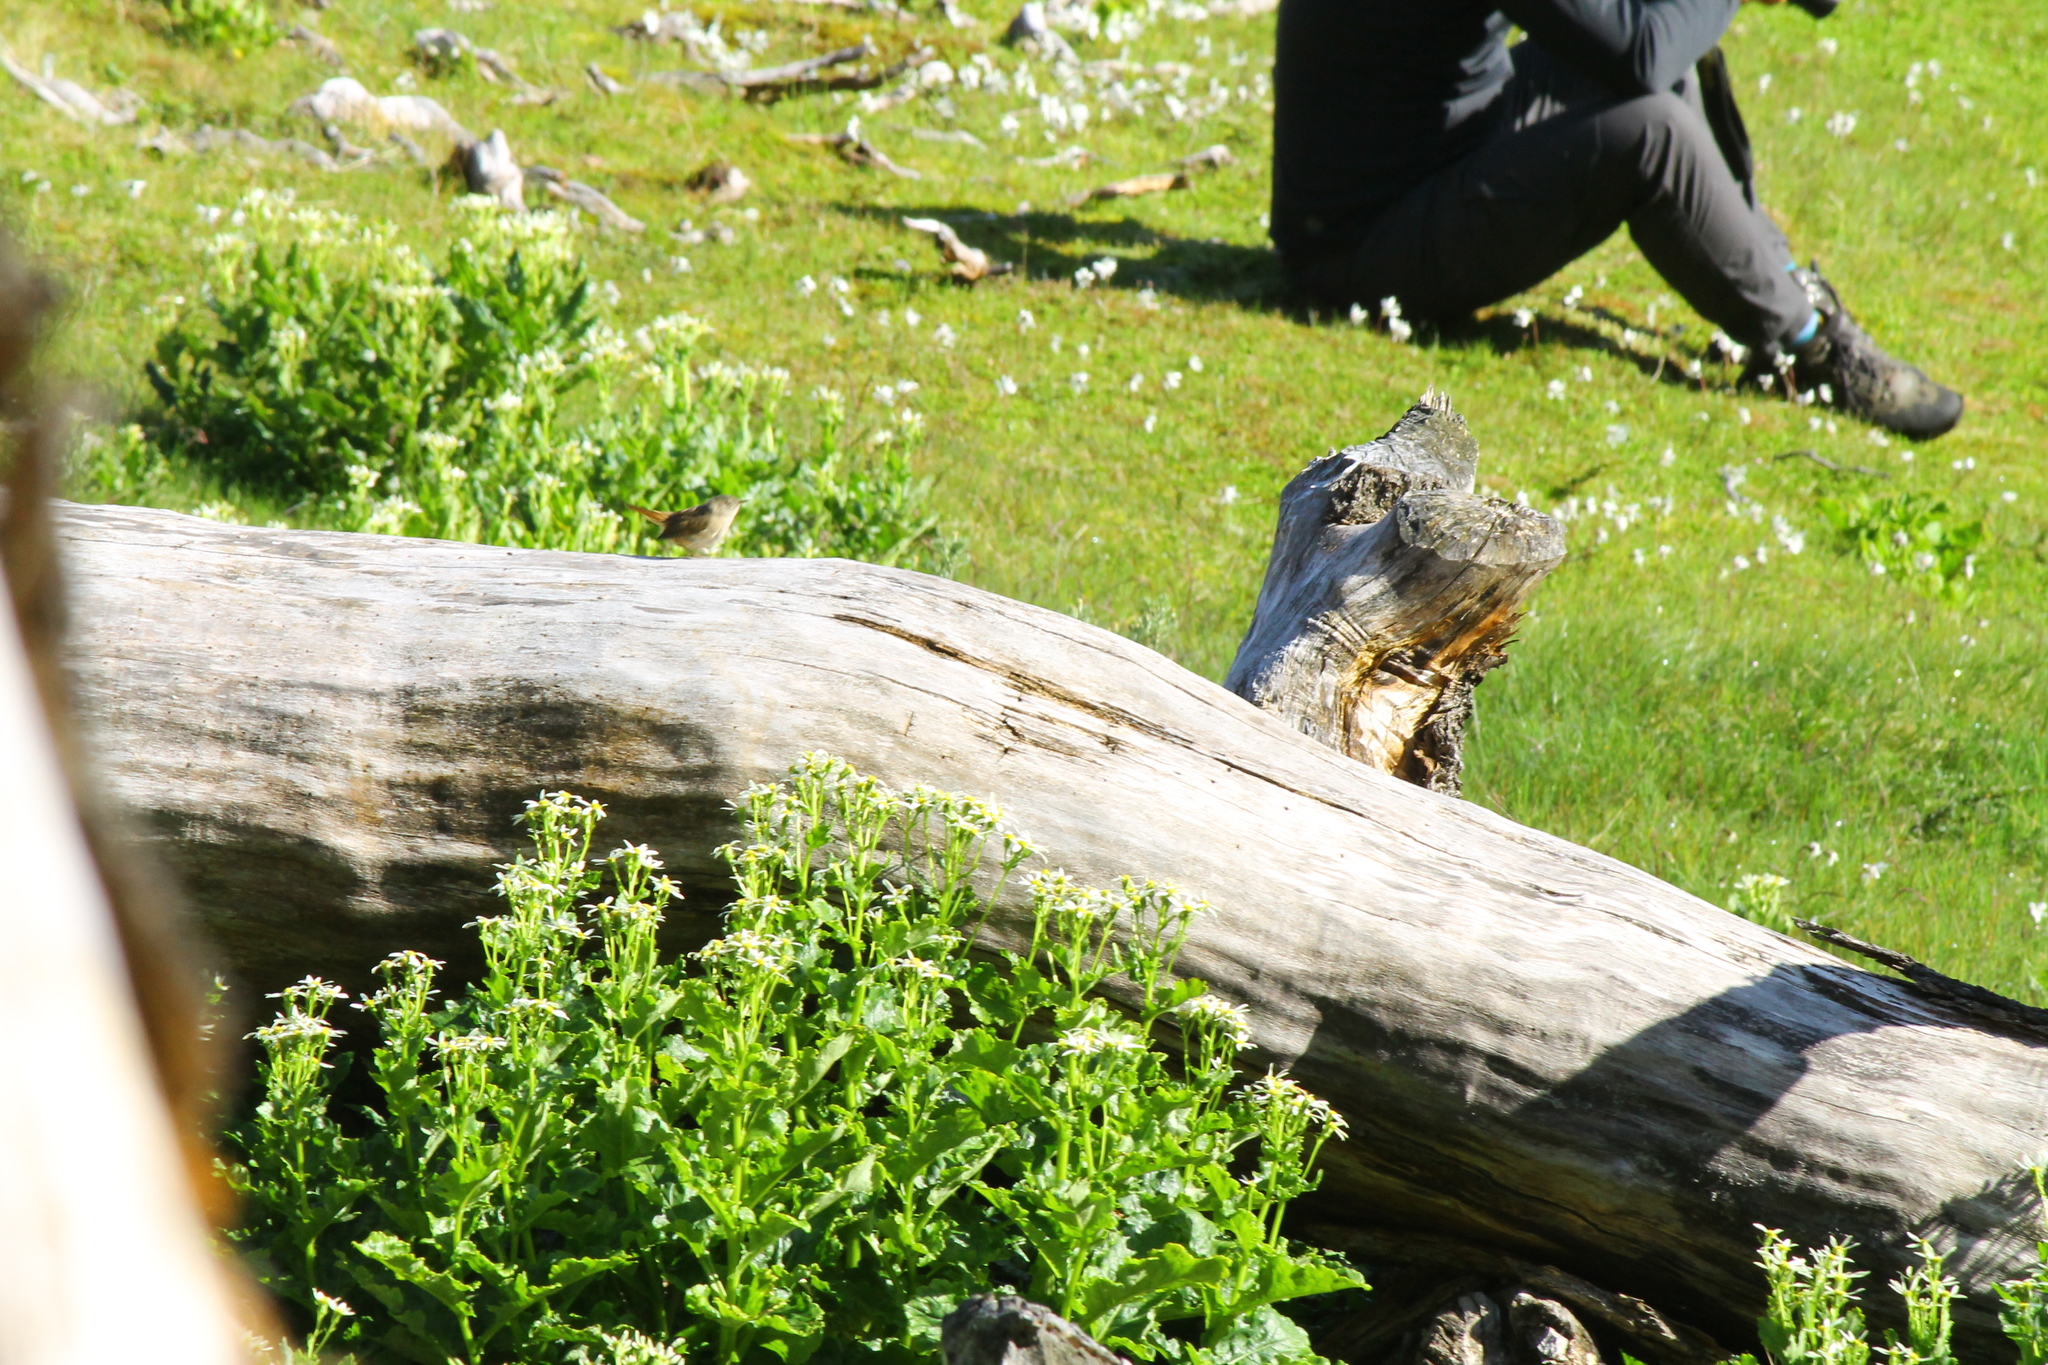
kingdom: Animalia
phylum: Chordata
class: Aves
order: Passeriformes
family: Troglodytidae
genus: Troglodytes
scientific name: Troglodytes aedon
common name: House wren
